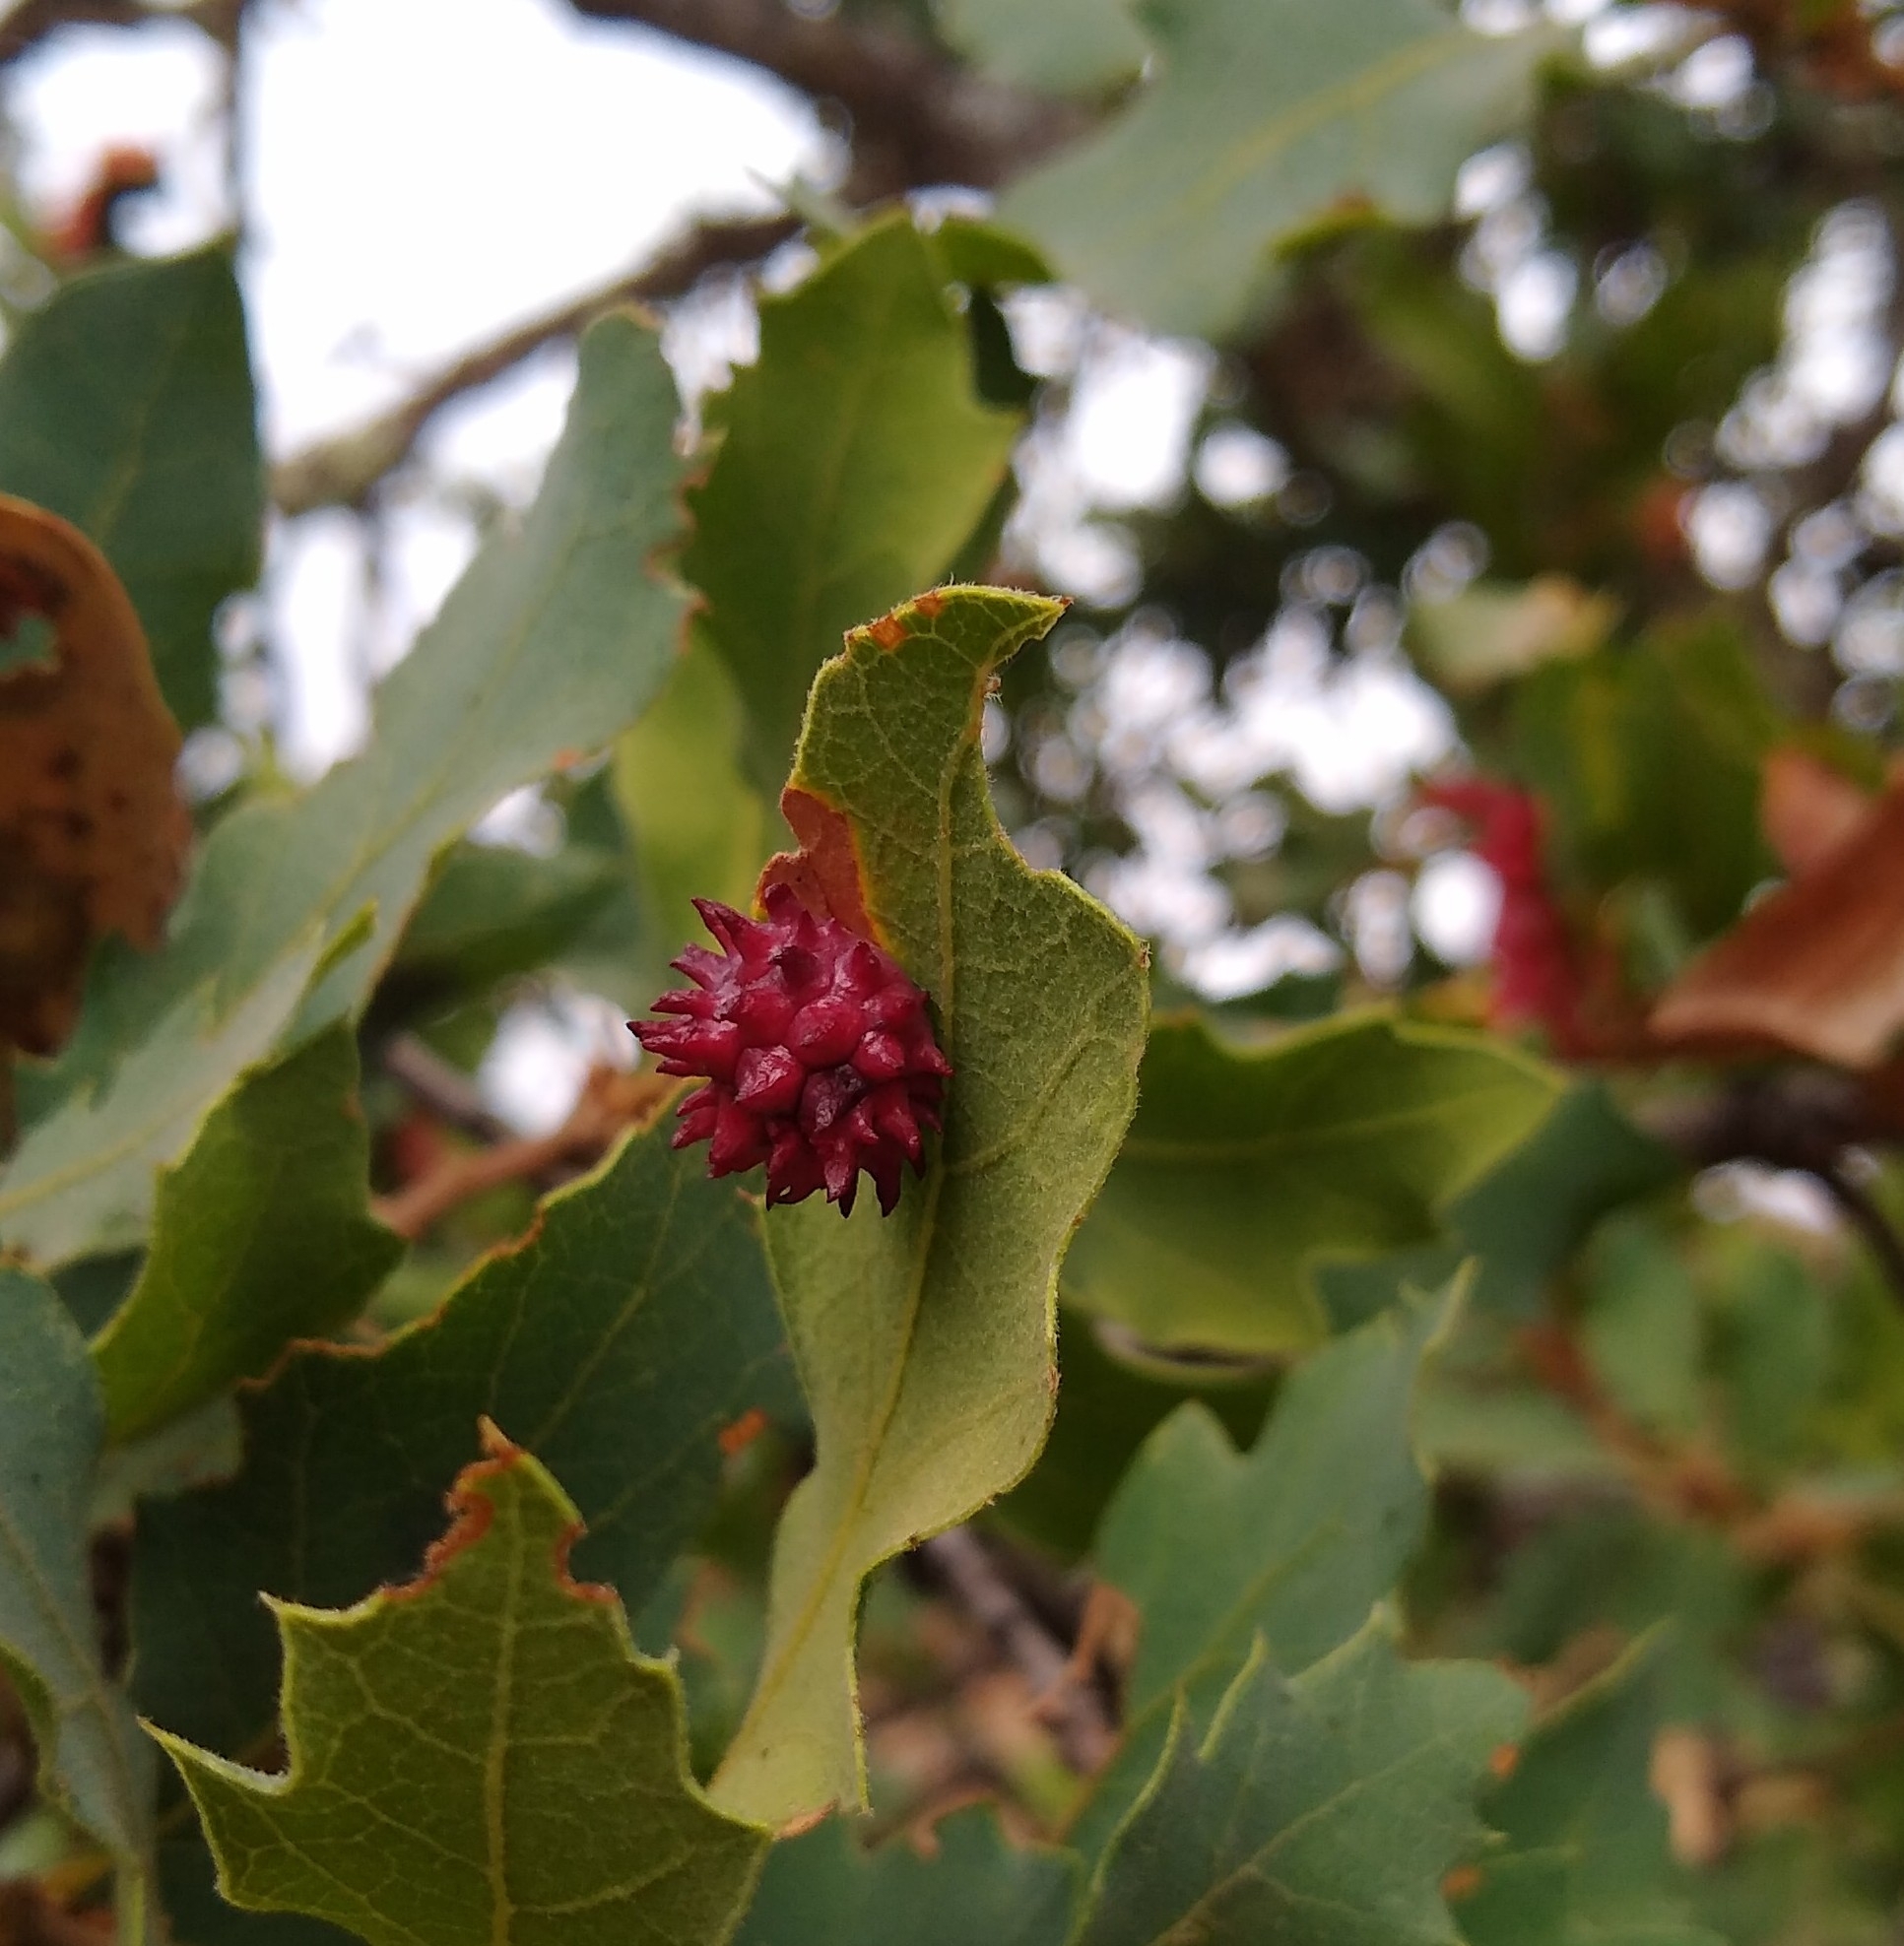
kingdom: Animalia
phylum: Arthropoda
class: Insecta
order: Hymenoptera
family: Cynipidae
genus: Cynips
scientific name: Cynips
